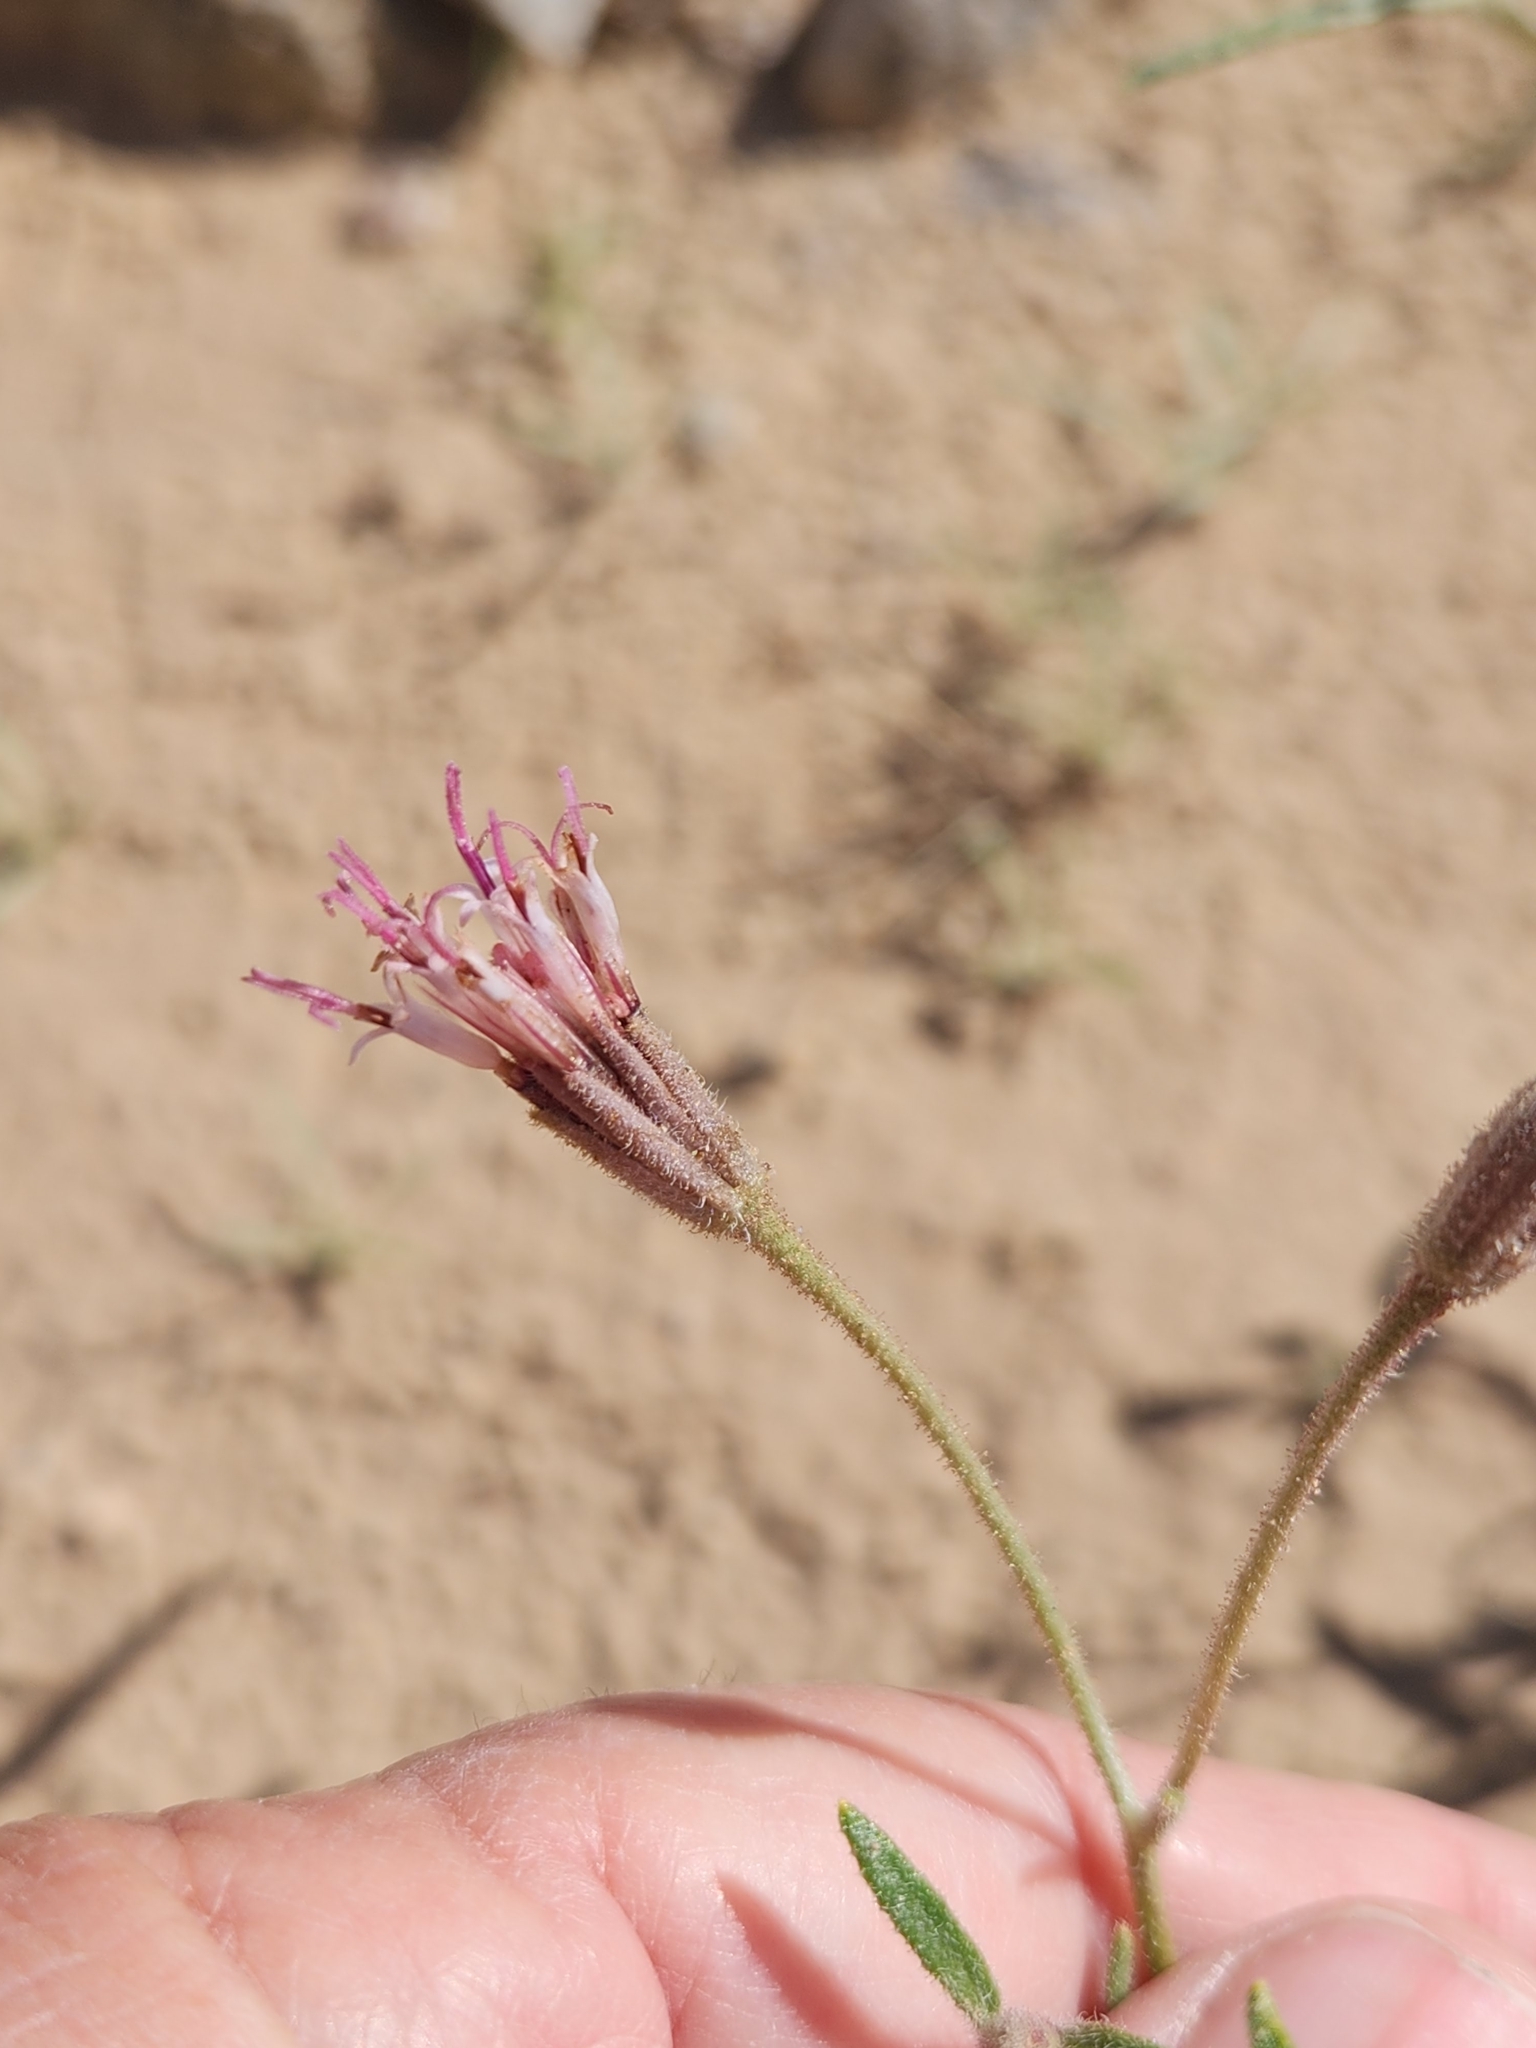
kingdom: Plantae
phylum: Tracheophyta
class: Magnoliopsida
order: Asterales
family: Asteraceae
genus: Palafoxia
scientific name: Palafoxia arida
